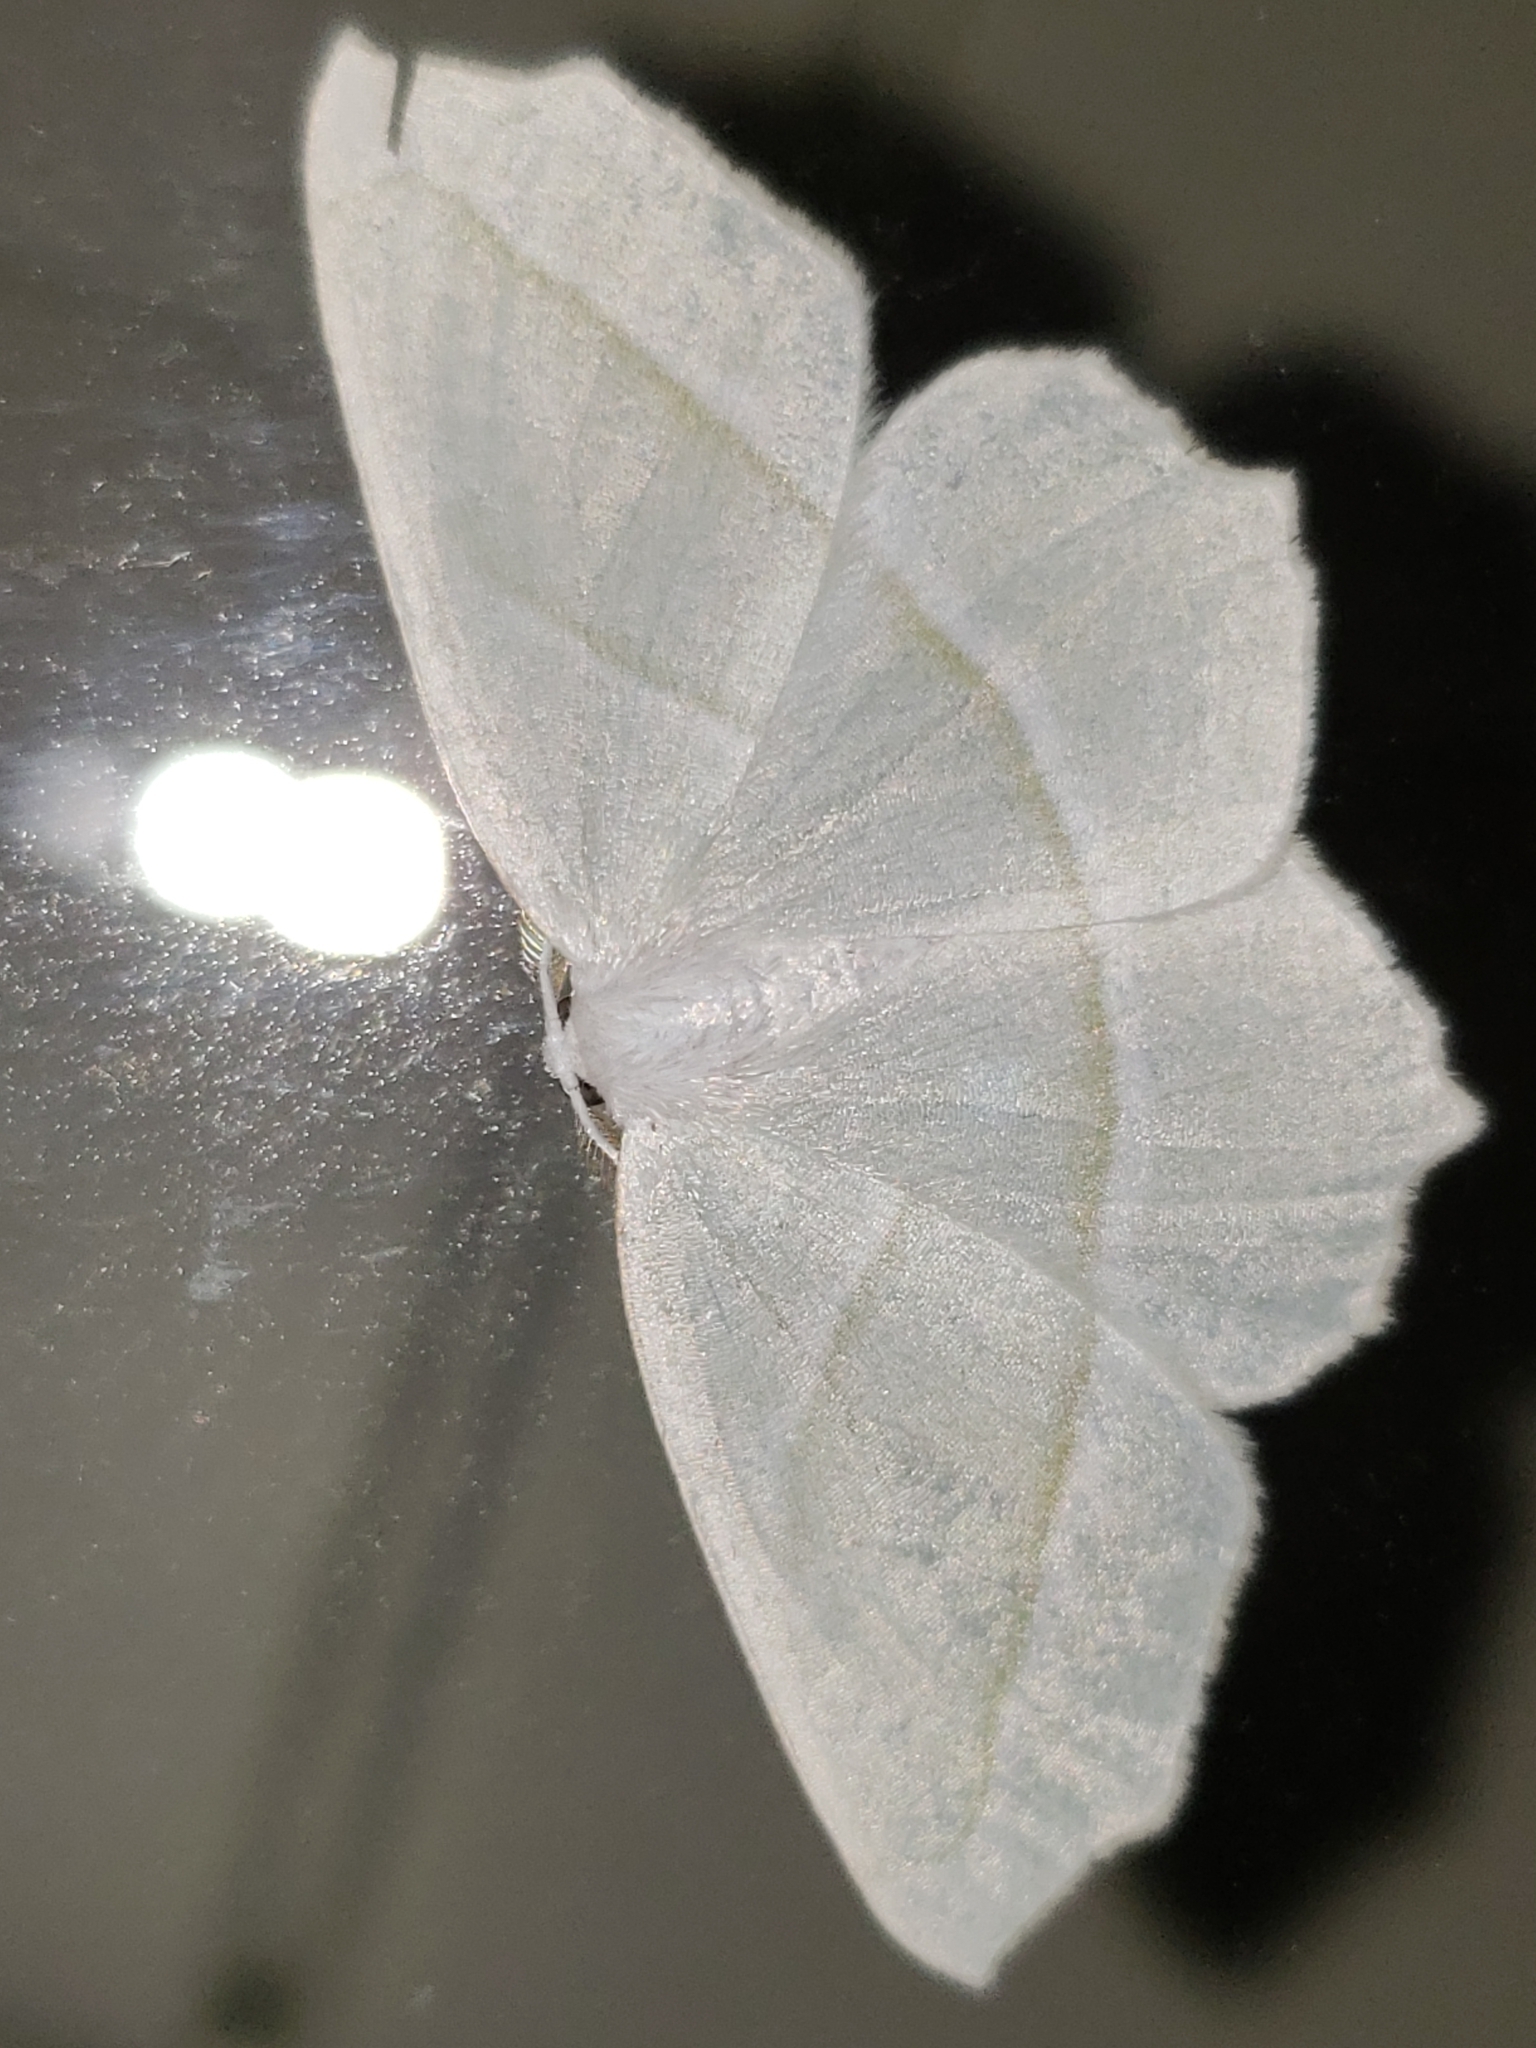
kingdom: Animalia
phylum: Arthropoda
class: Insecta
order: Lepidoptera
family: Geometridae
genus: Campaea
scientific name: Campaea perlata
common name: Fringed looper
